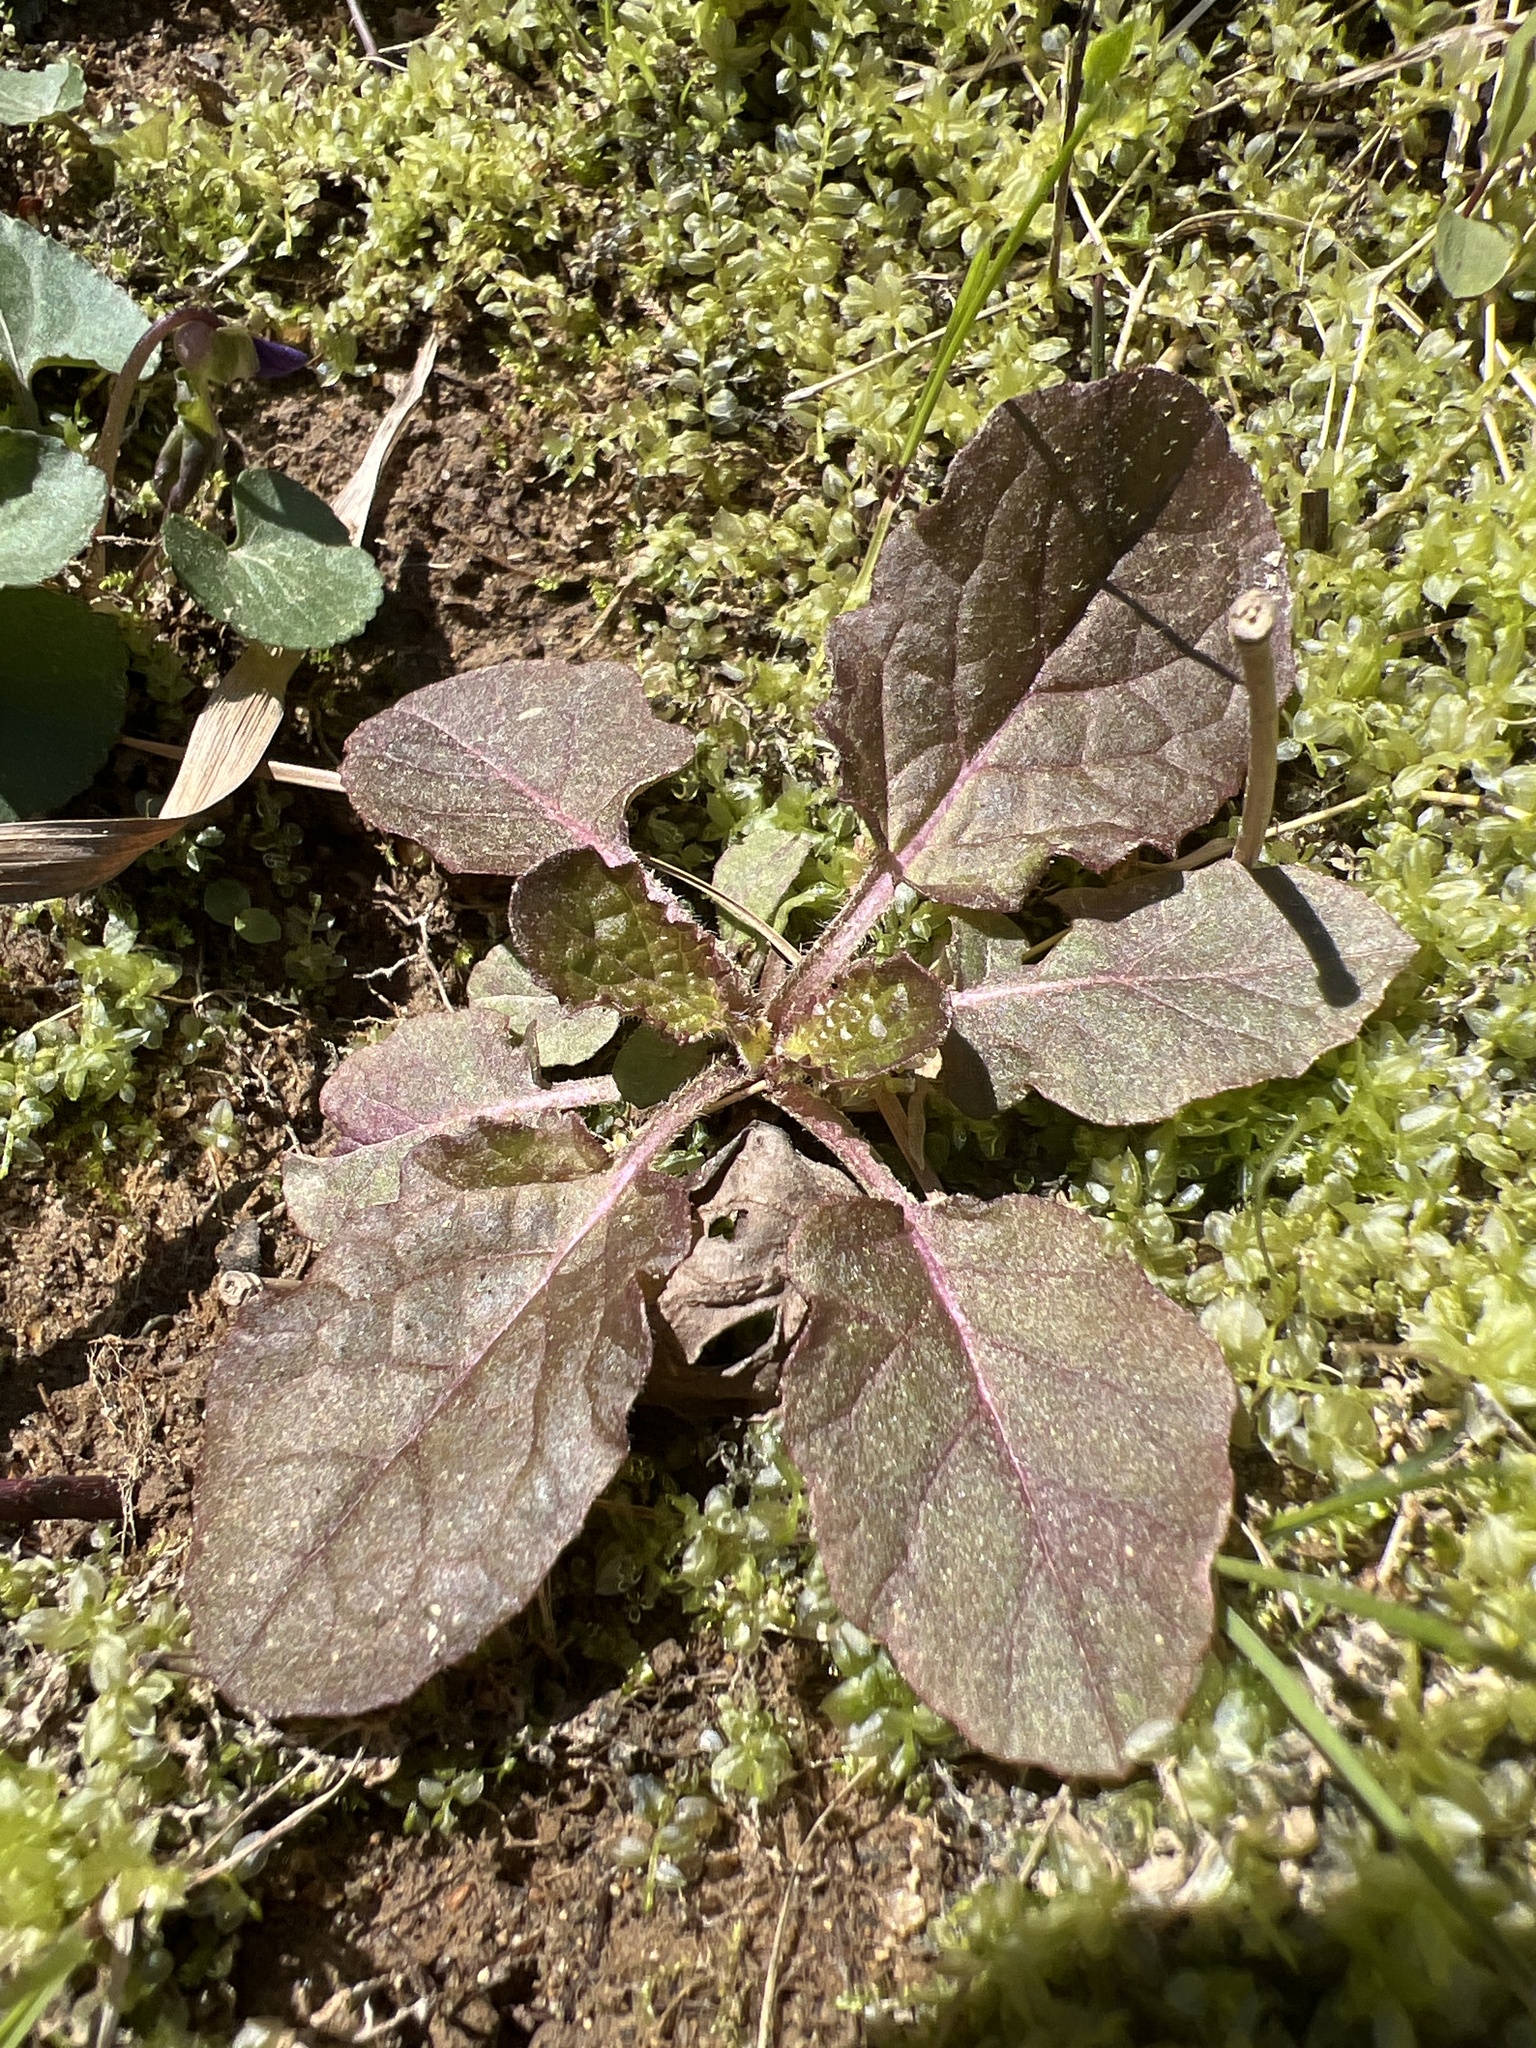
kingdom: Plantae
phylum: Tracheophyta
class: Magnoliopsida
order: Lamiales
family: Lamiaceae
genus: Salvia
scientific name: Salvia lyrata
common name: Cancerweed
